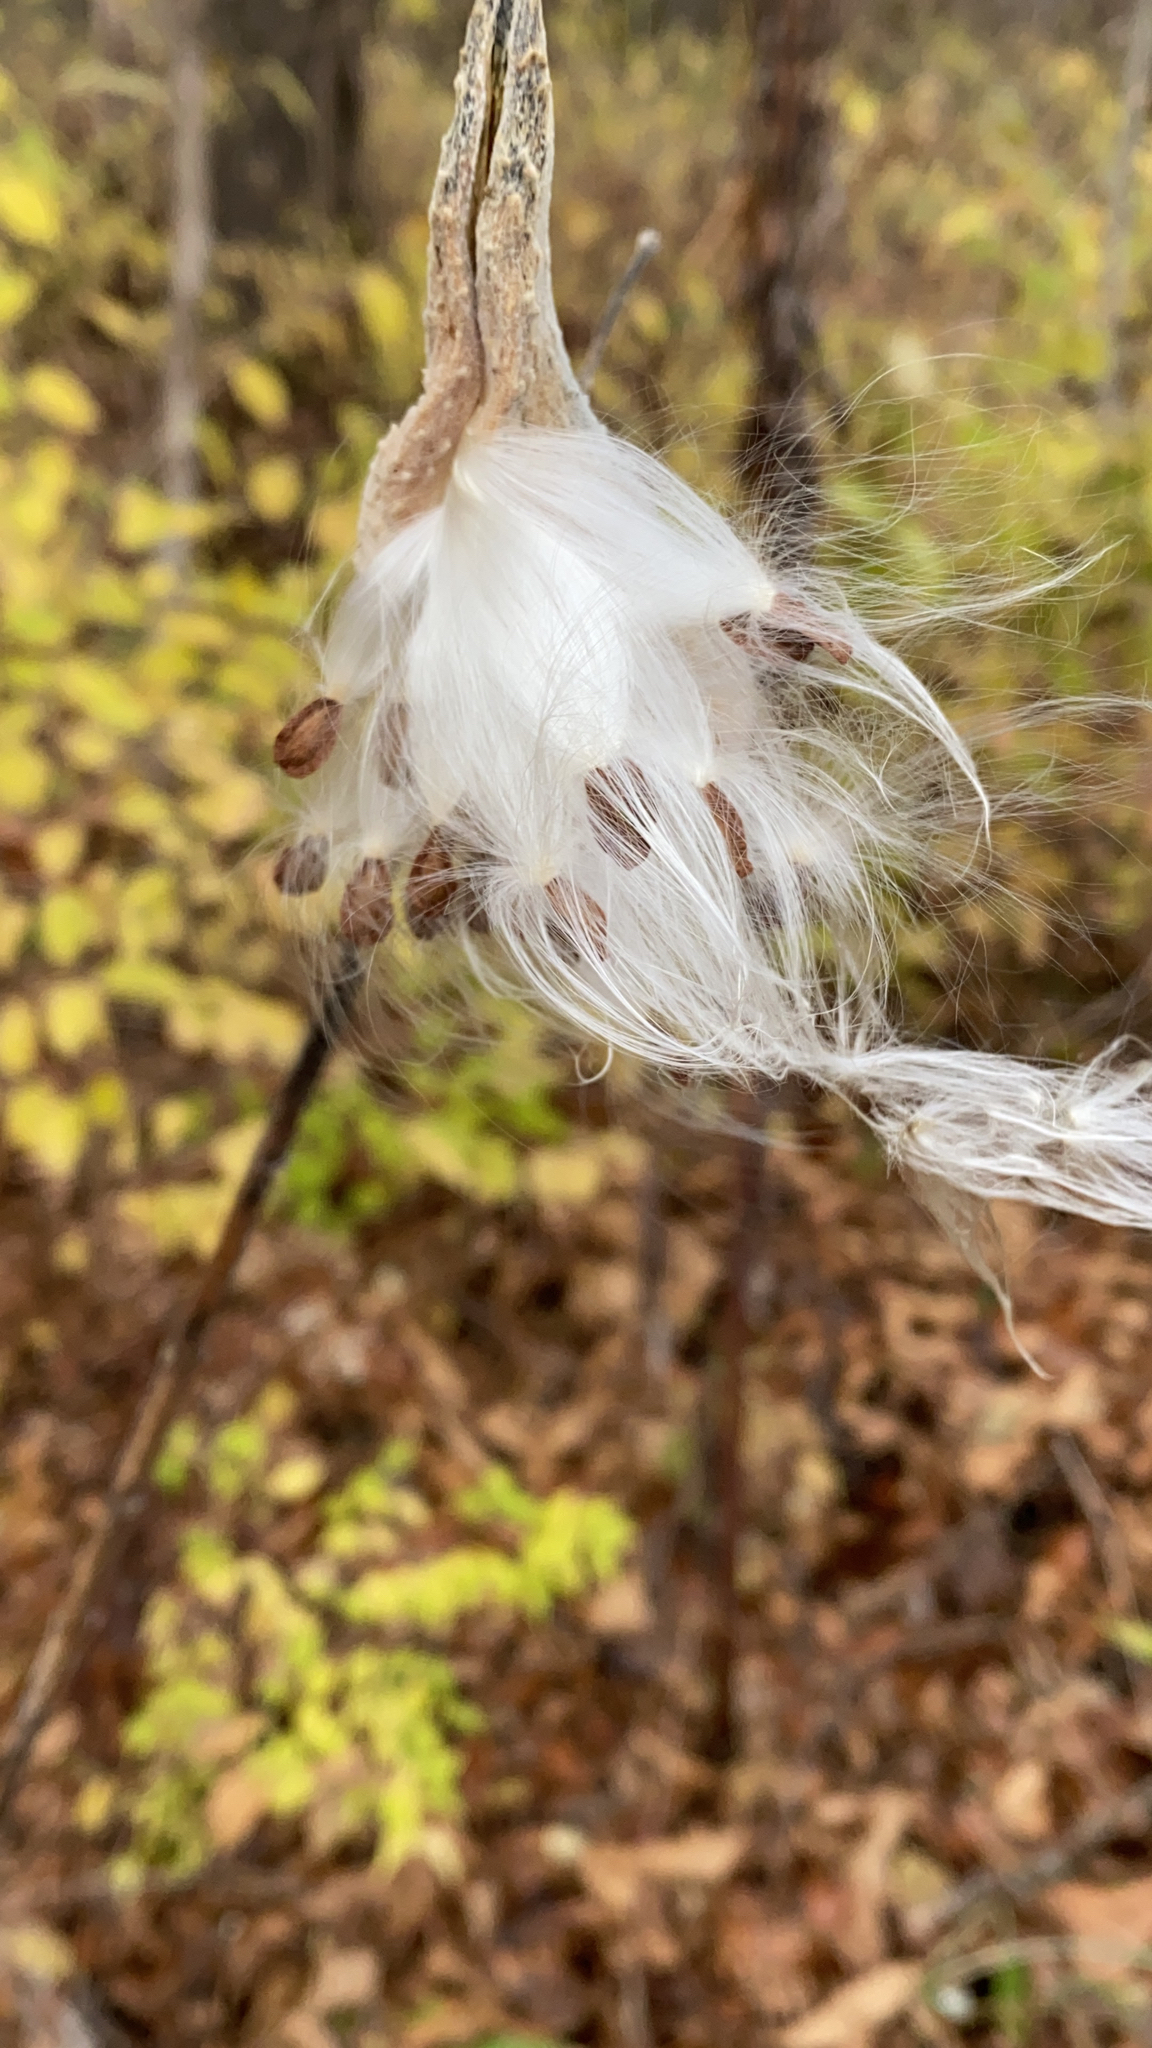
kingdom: Plantae
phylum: Tracheophyta
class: Magnoliopsida
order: Gentianales
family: Apocynaceae
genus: Asclepias
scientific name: Asclepias syriaca
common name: Common milkweed
